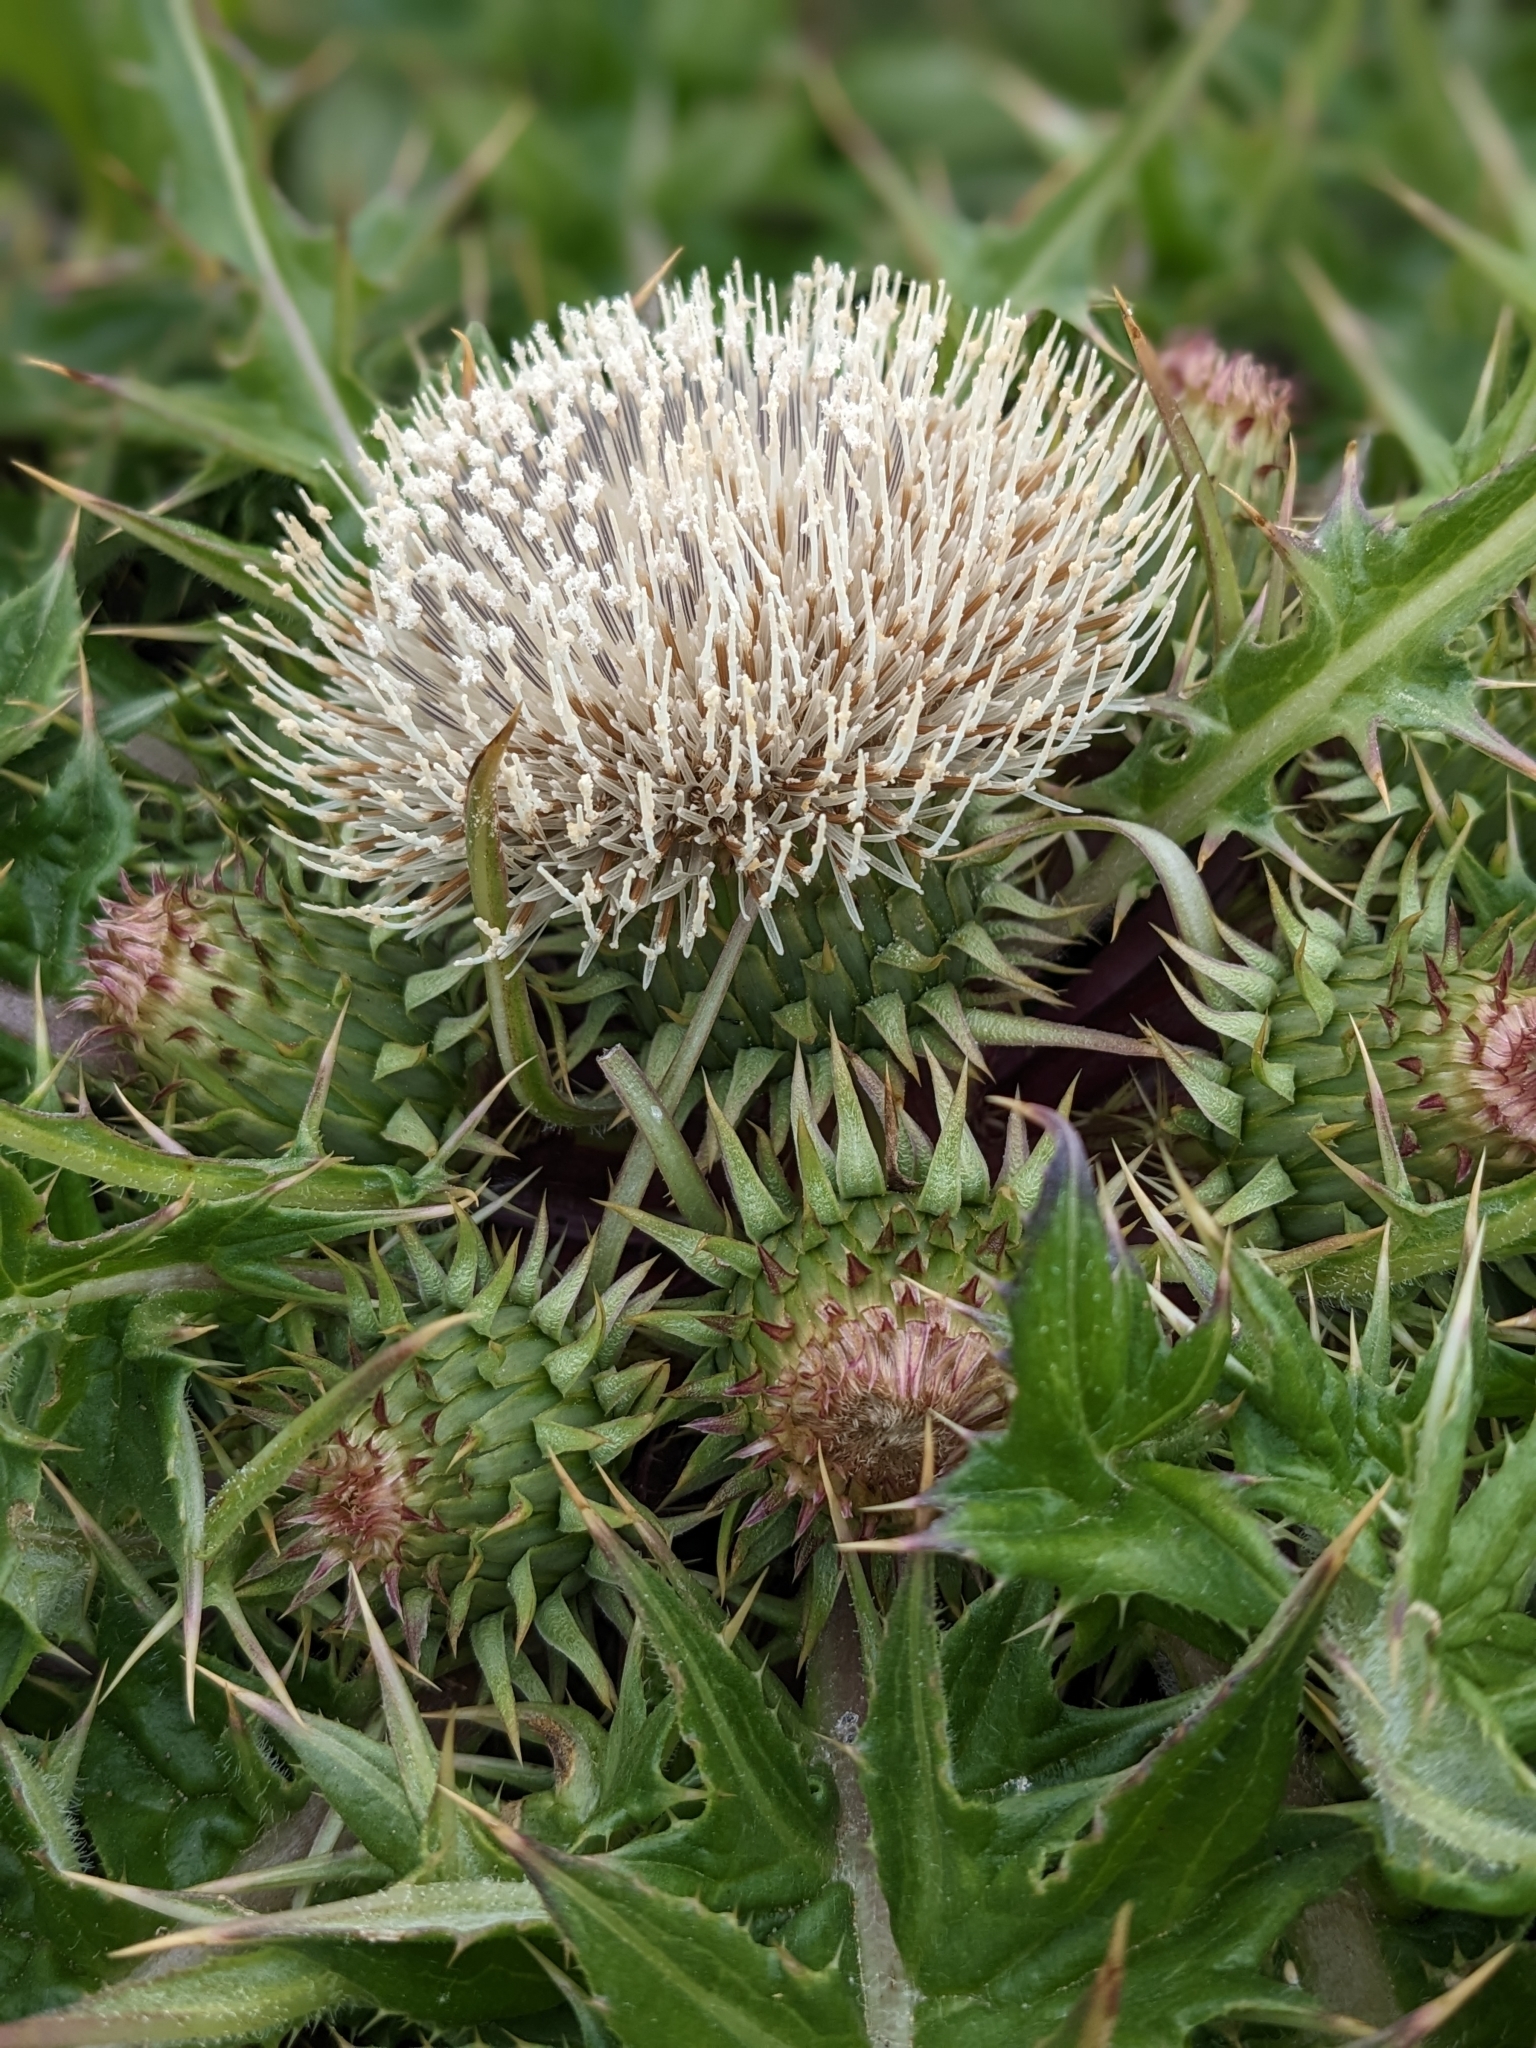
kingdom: Plantae
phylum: Tracheophyta
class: Magnoliopsida
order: Asterales
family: Asteraceae
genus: Cirsium
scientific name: Cirsium quercetorum
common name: Alameda county thistle
